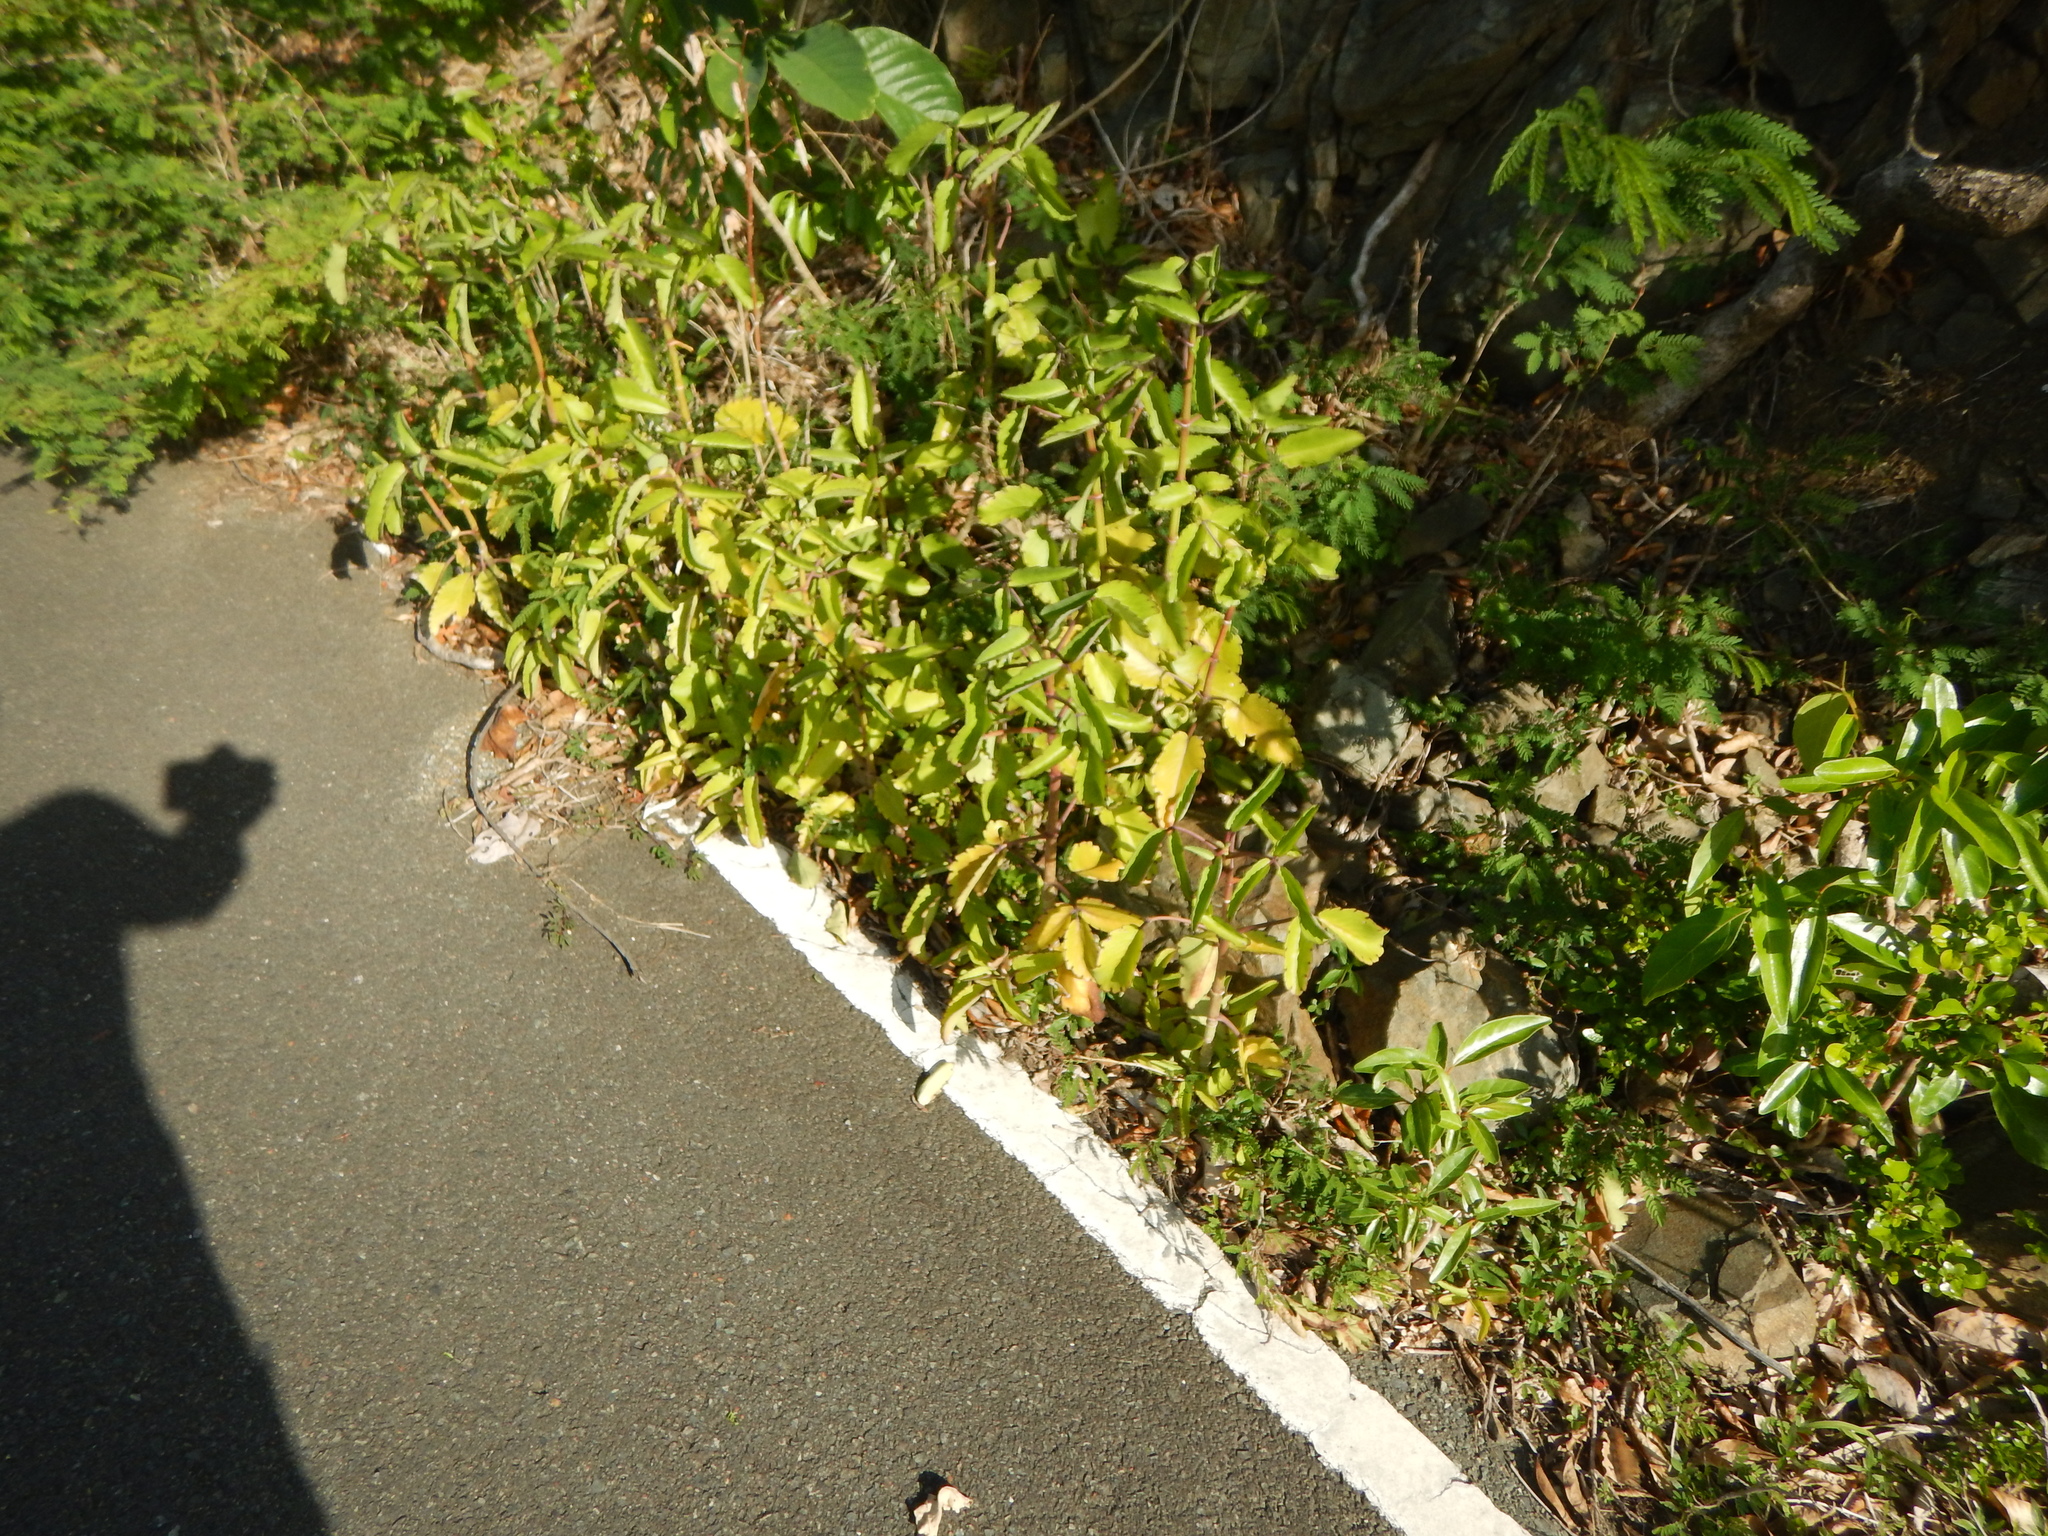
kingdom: Plantae
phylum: Tracheophyta
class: Magnoliopsida
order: Saxifragales
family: Crassulaceae
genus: Kalanchoe
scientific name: Kalanchoe pinnata
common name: Cathedral bells
